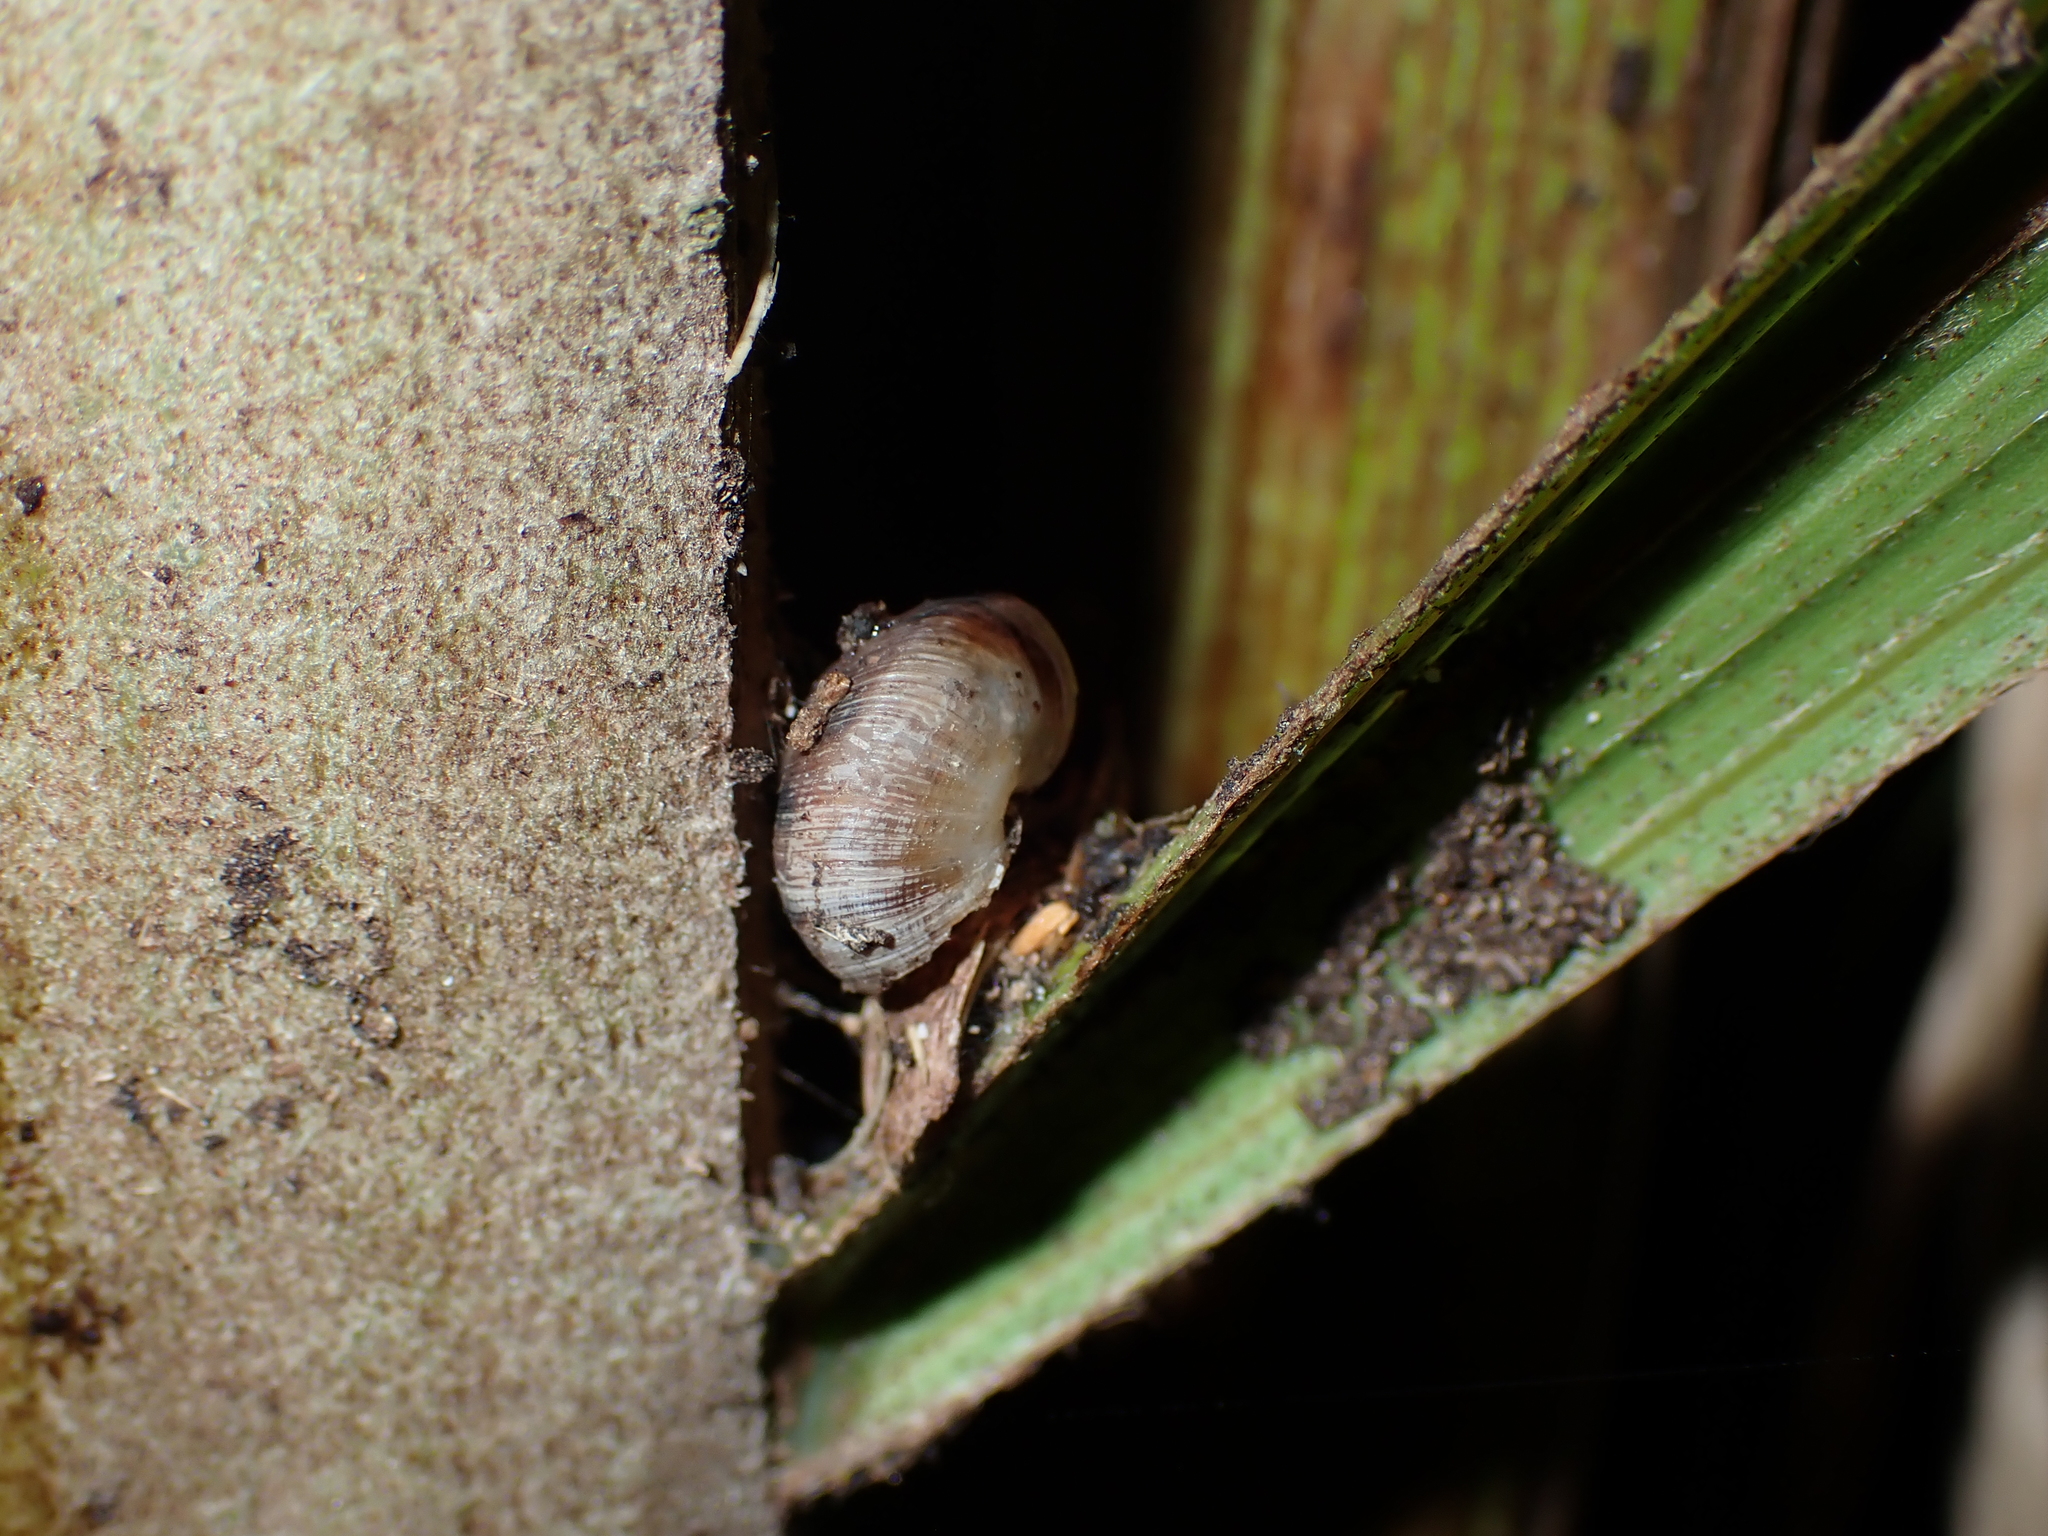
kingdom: Animalia
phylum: Mollusca
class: Gastropoda
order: Stylommatophora
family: Charopidae
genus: Serpho
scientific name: Serpho
